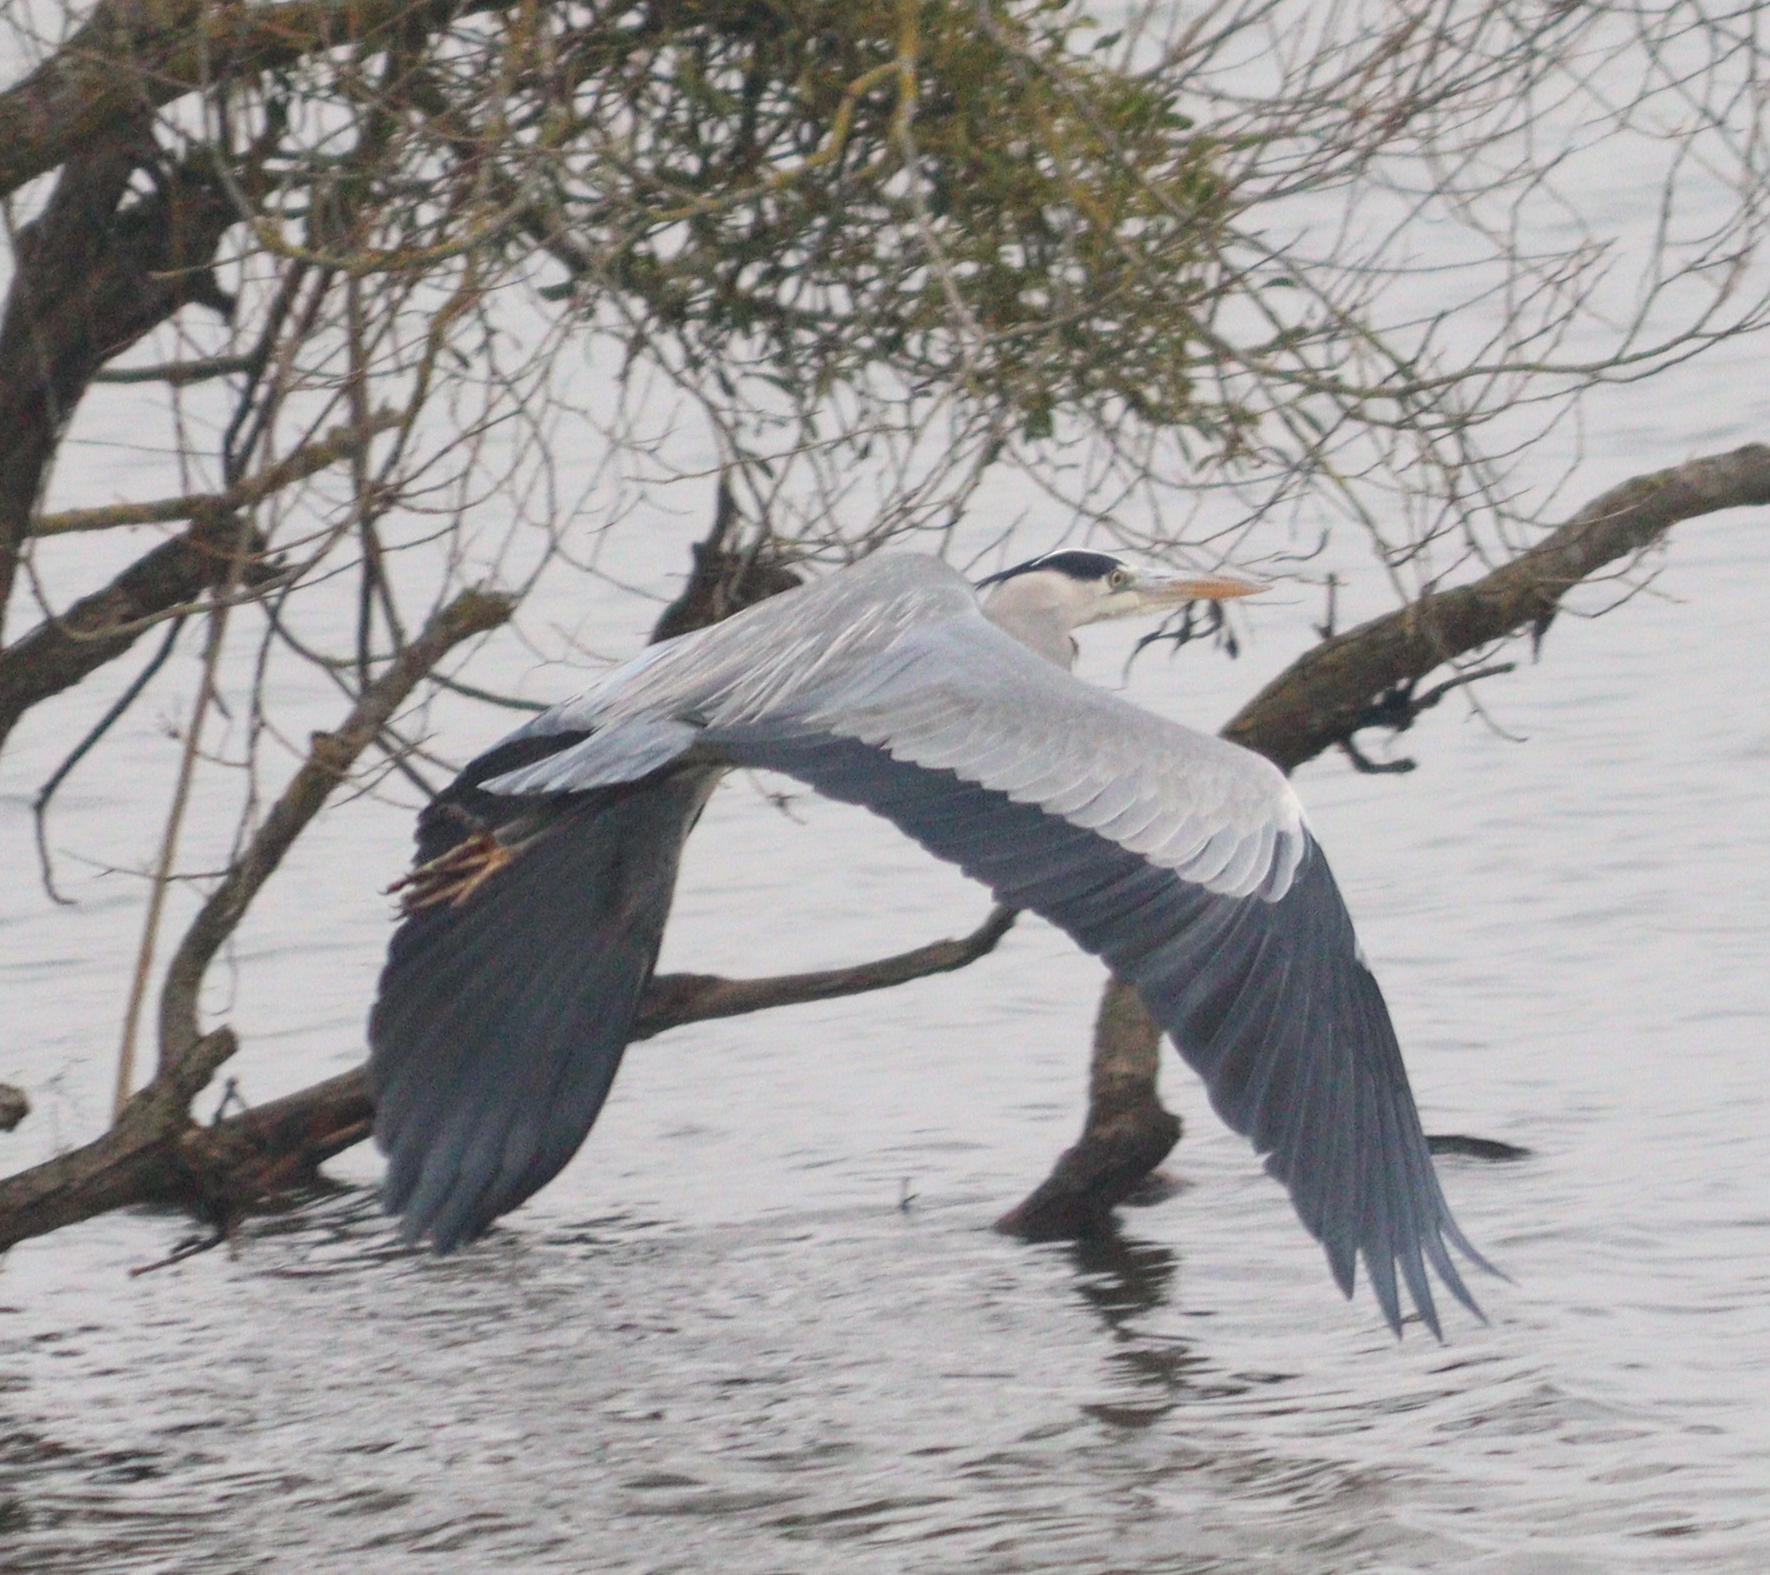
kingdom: Animalia
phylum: Chordata
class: Aves
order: Pelecaniformes
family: Ardeidae
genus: Ardea
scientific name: Ardea cinerea
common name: Grey heron
